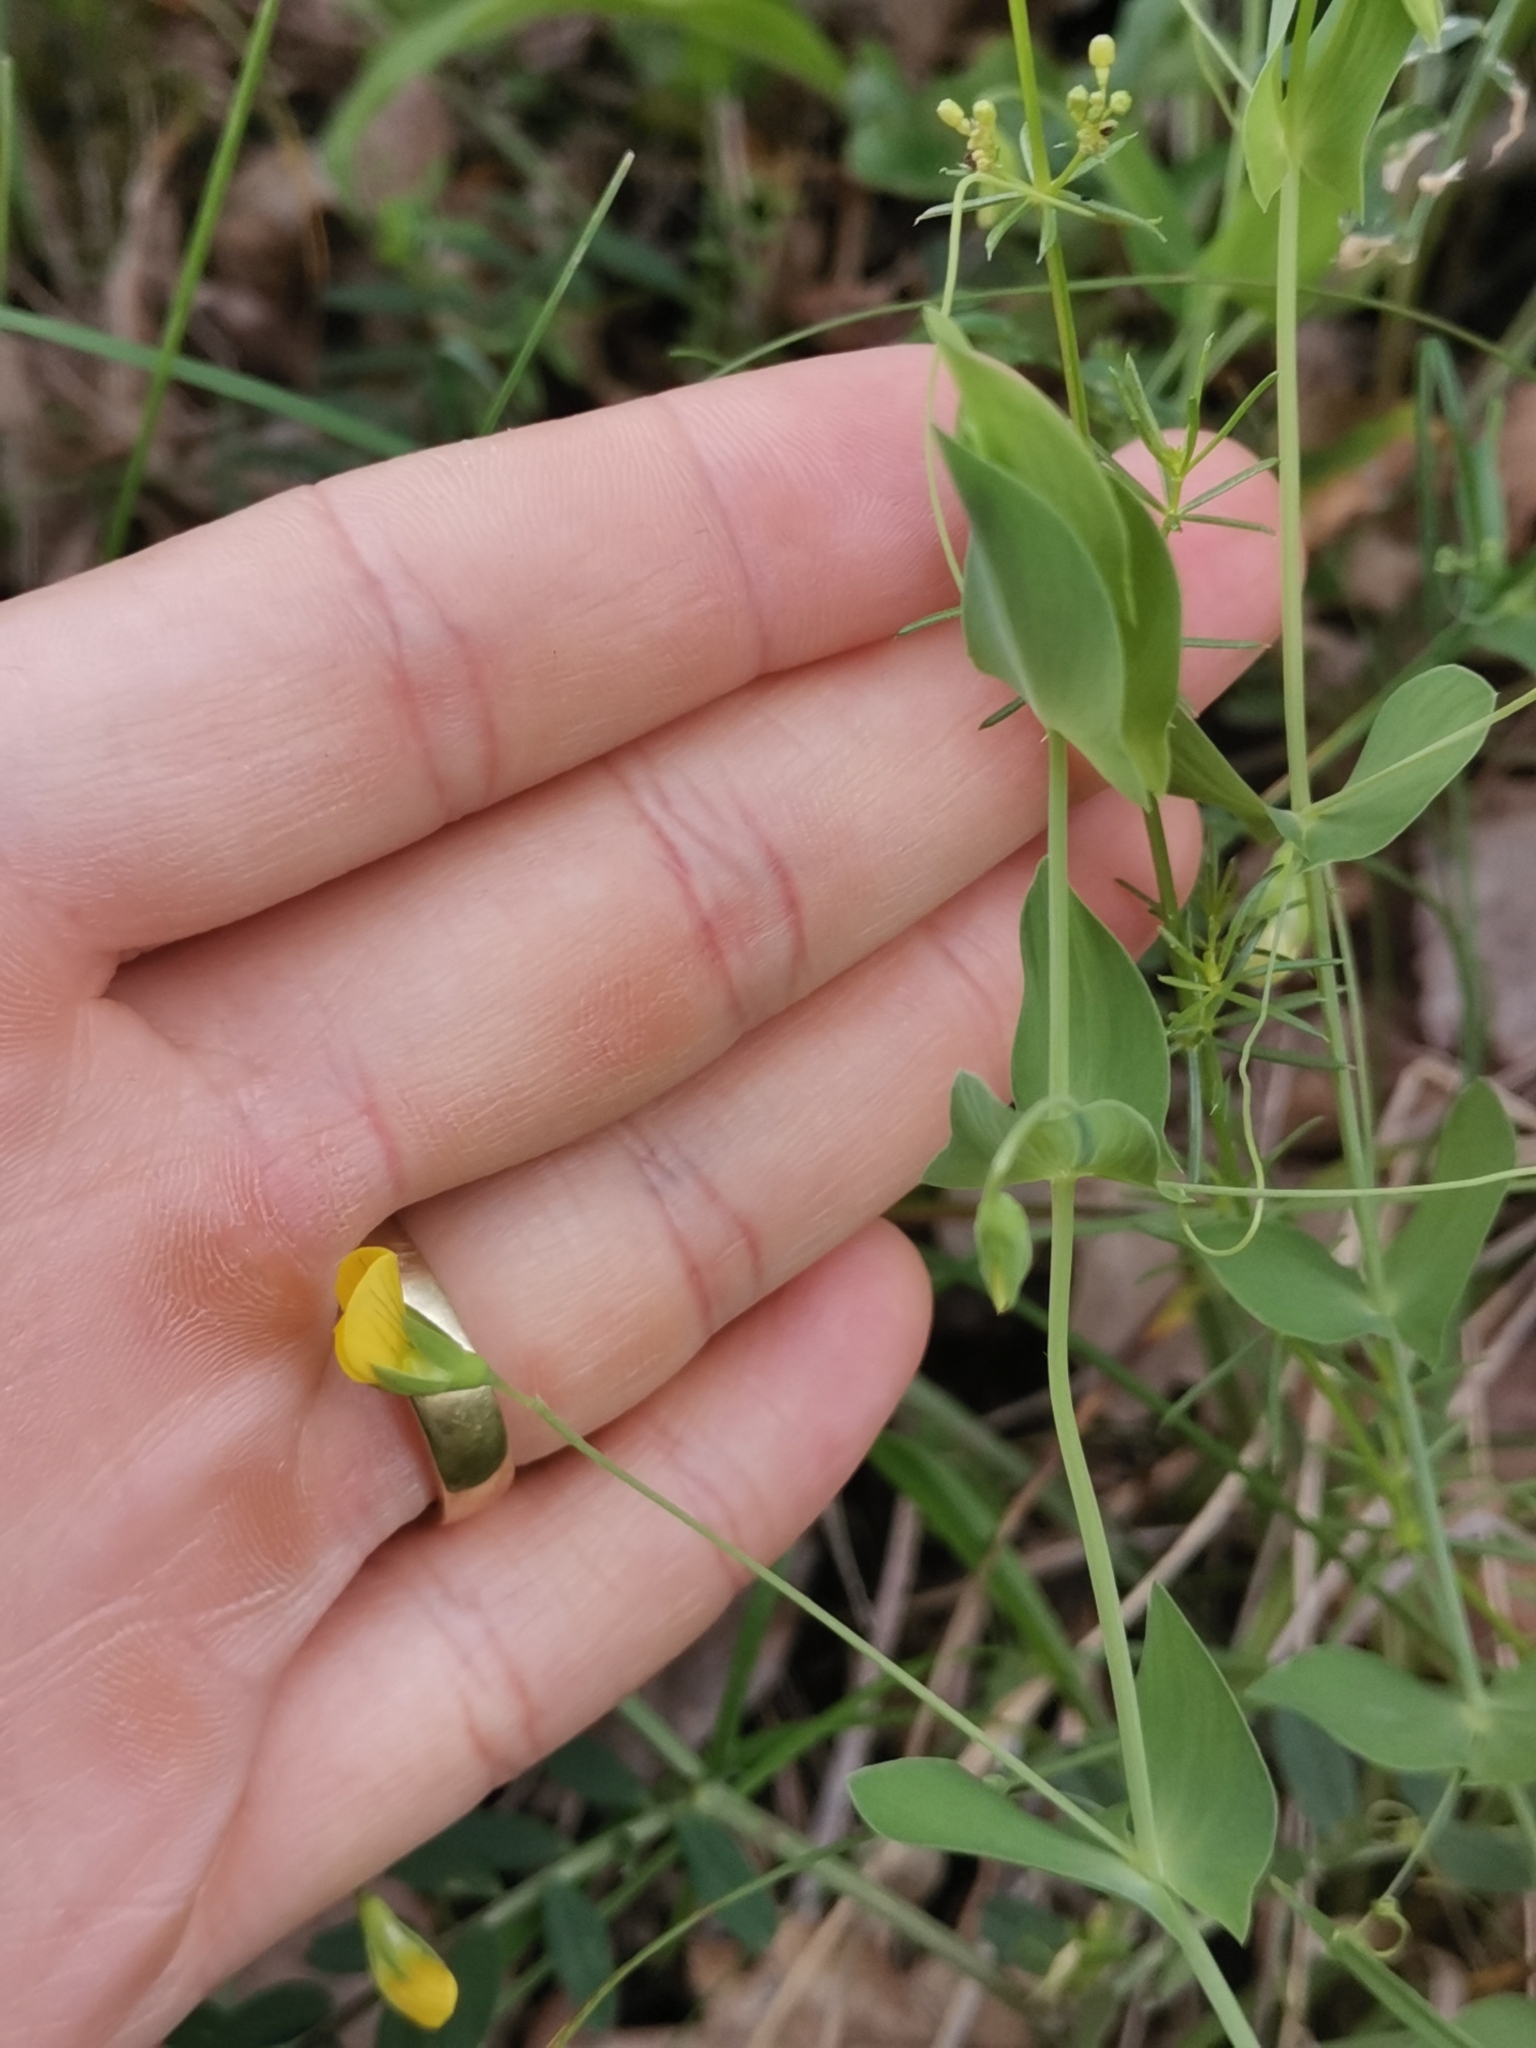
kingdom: Plantae
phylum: Tracheophyta
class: Magnoliopsida
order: Fabales
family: Fabaceae
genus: Lathyrus
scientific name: Lathyrus aphaca
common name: Yellow vetchling
